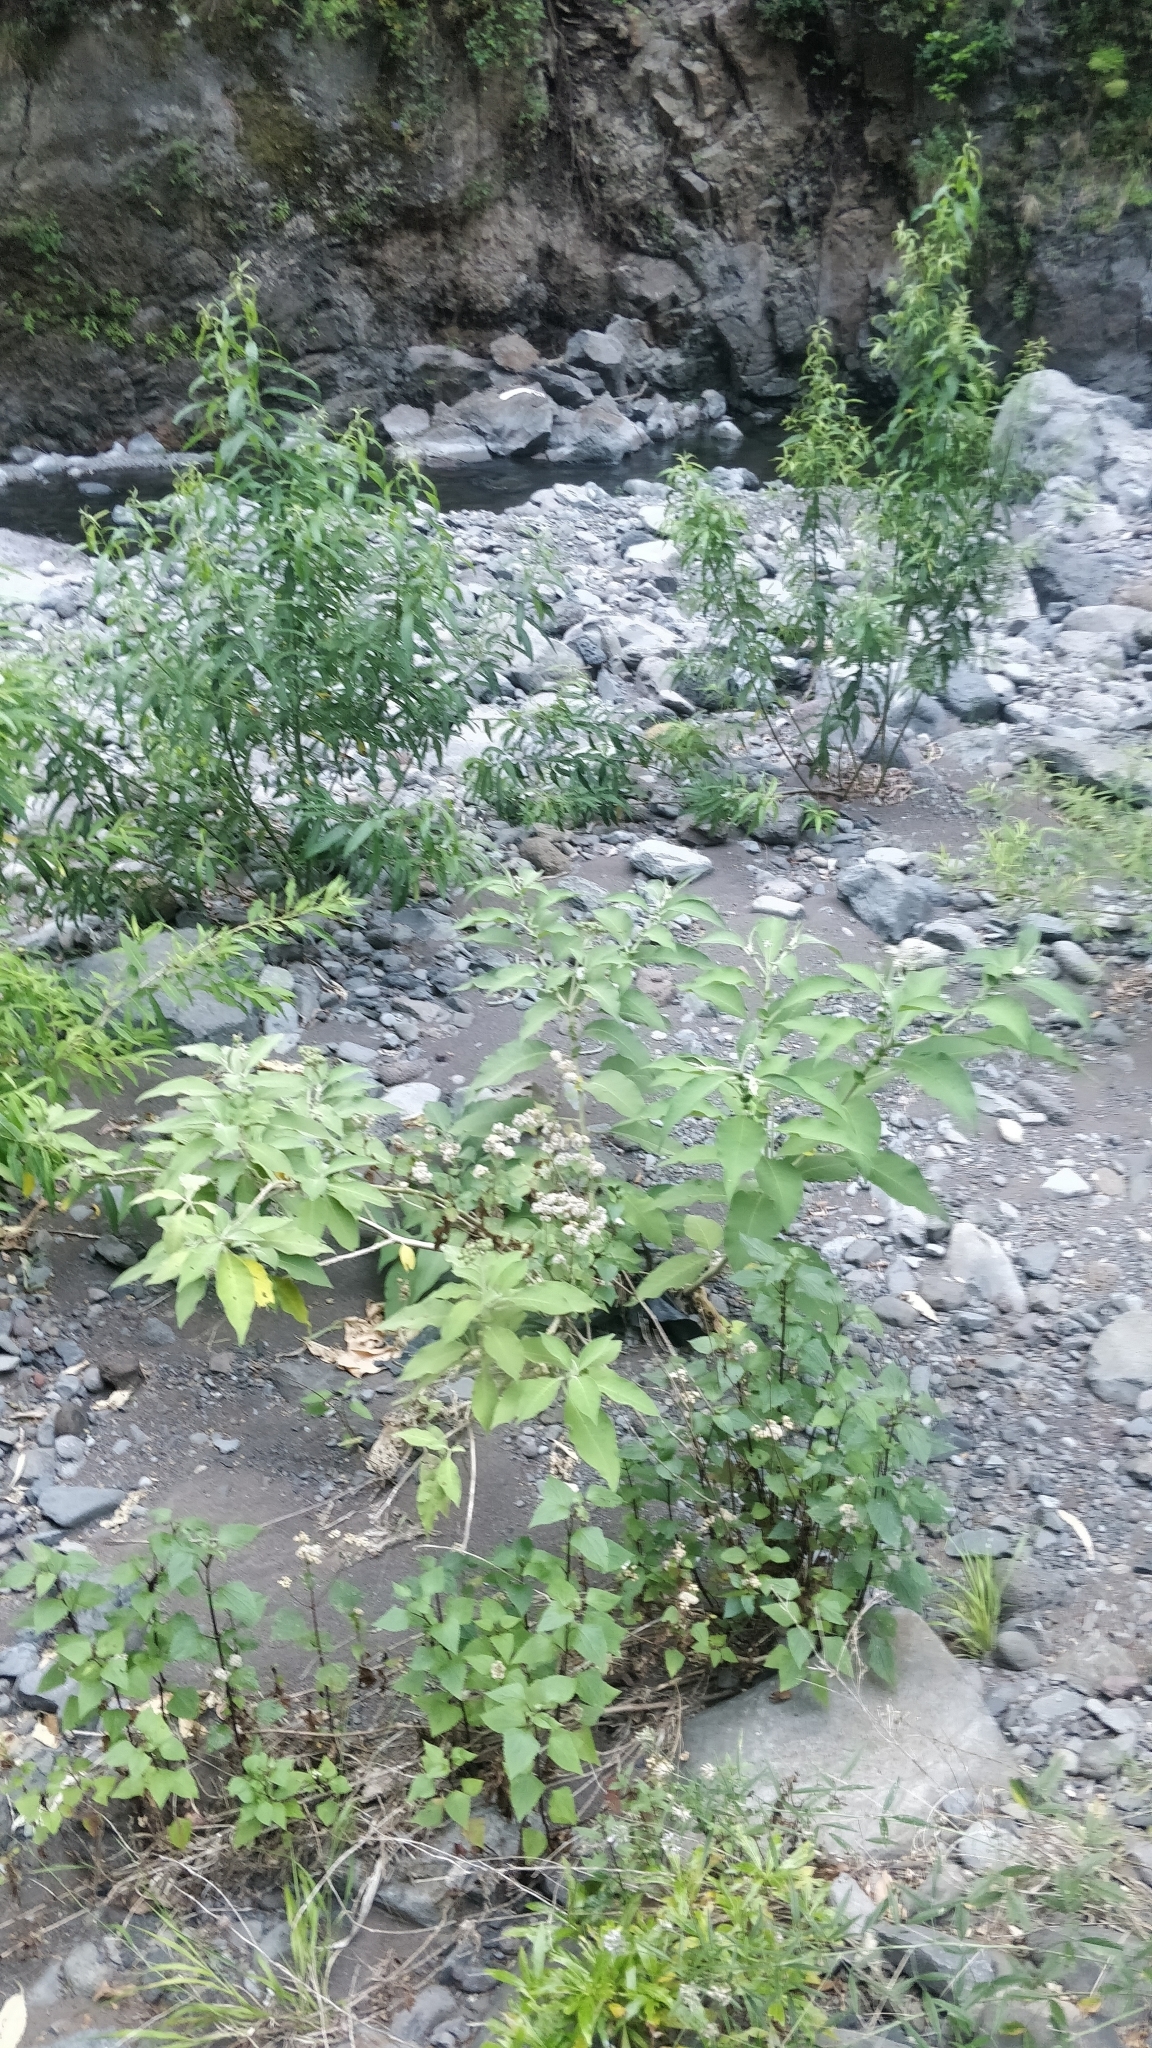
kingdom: Plantae
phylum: Tracheophyta
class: Magnoliopsida
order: Solanales
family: Solanaceae
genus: Solanum
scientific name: Solanum mauritianum
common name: Earleaf nightshade
